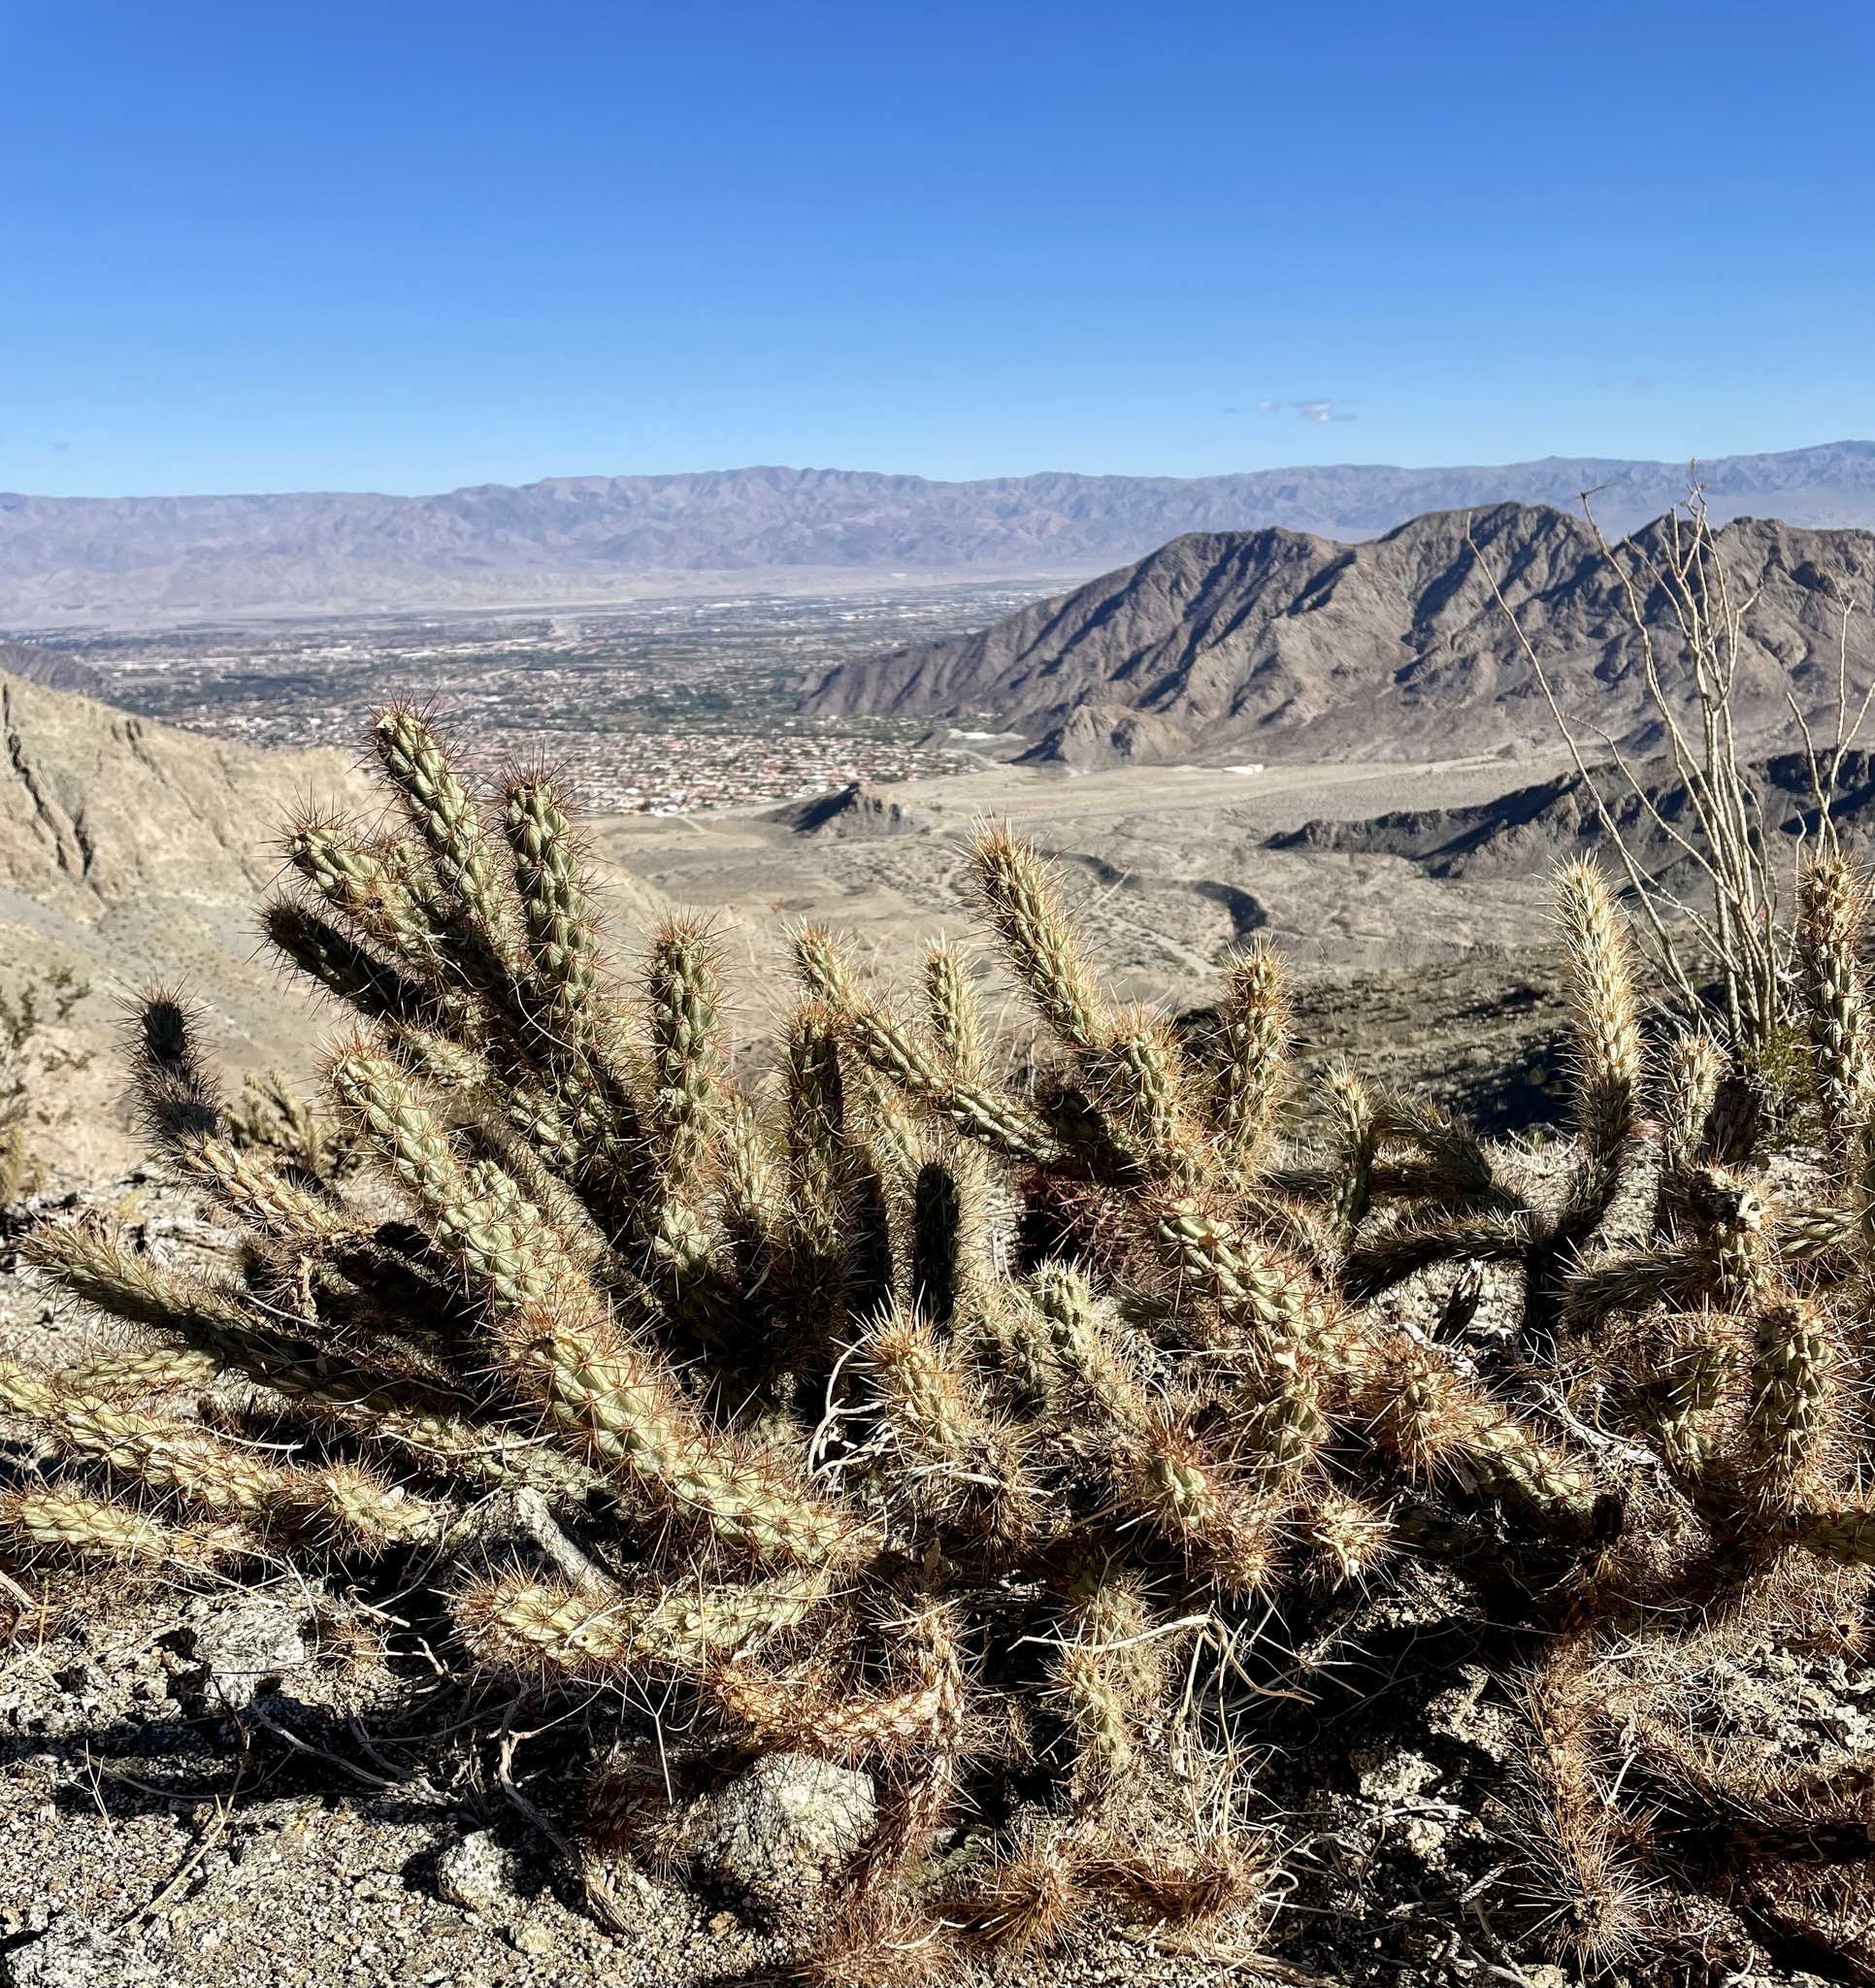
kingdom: Plantae
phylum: Tracheophyta
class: Magnoliopsida
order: Caryophyllales
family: Cactaceae
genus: Cylindropuntia
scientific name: Cylindropuntia ganderi
